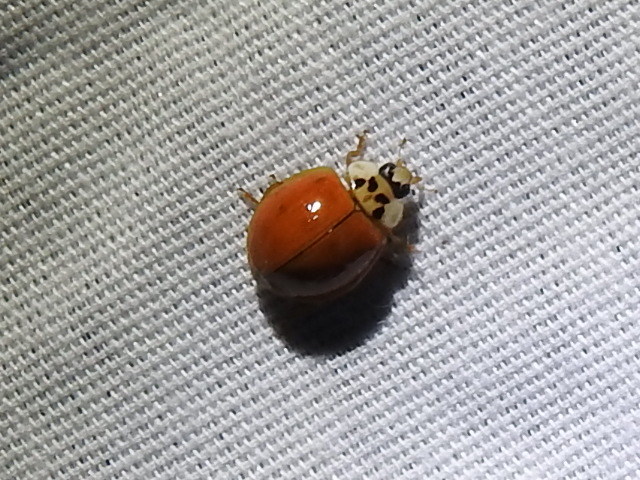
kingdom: Animalia
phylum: Arthropoda
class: Insecta
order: Coleoptera
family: Coccinellidae
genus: Harmonia
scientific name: Harmonia axyridis
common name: Harlequin ladybird
